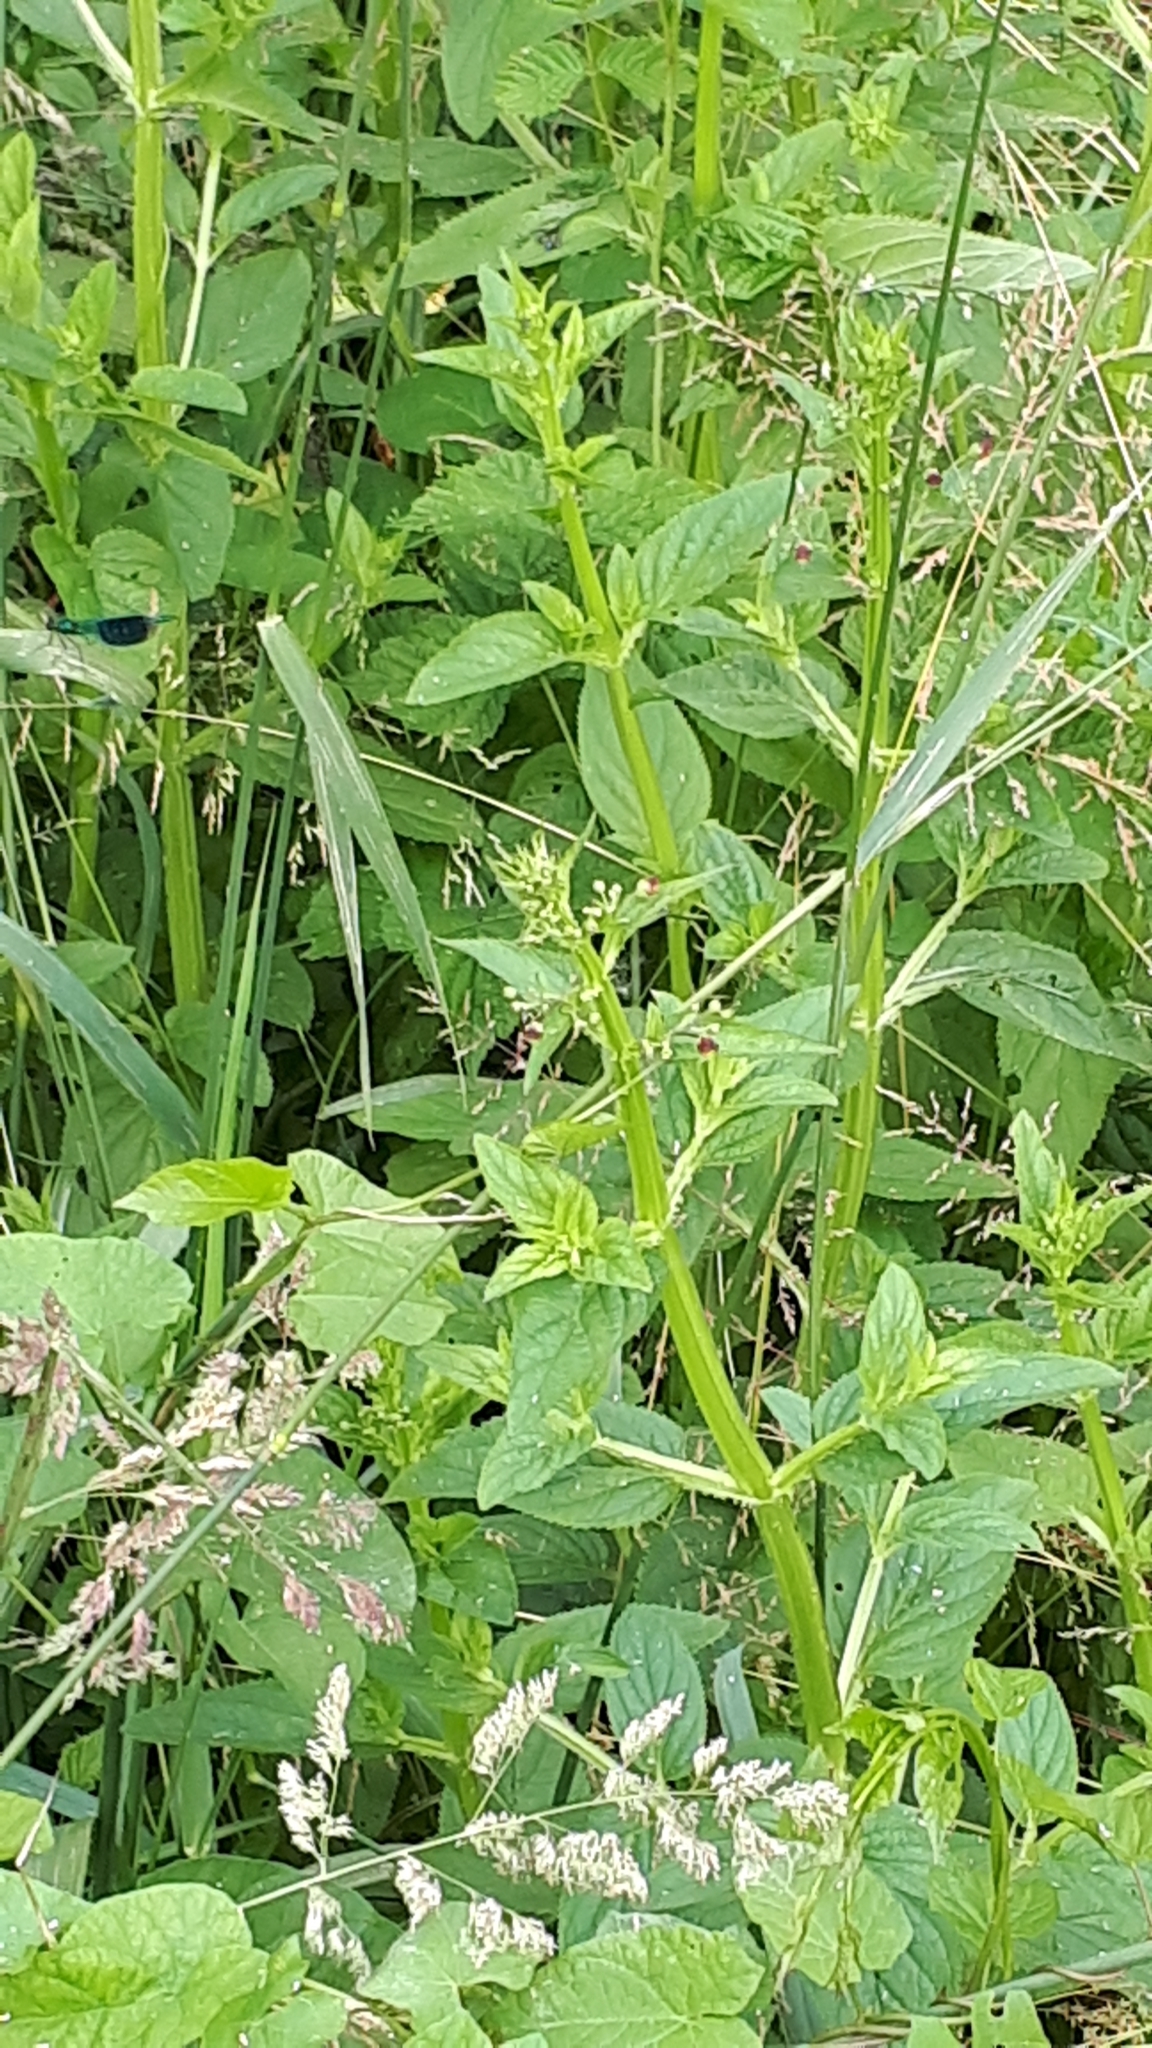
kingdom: Plantae
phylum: Tracheophyta
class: Magnoliopsida
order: Lamiales
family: Scrophulariaceae
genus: Scrophularia
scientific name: Scrophularia umbrosa
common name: Green figwort
